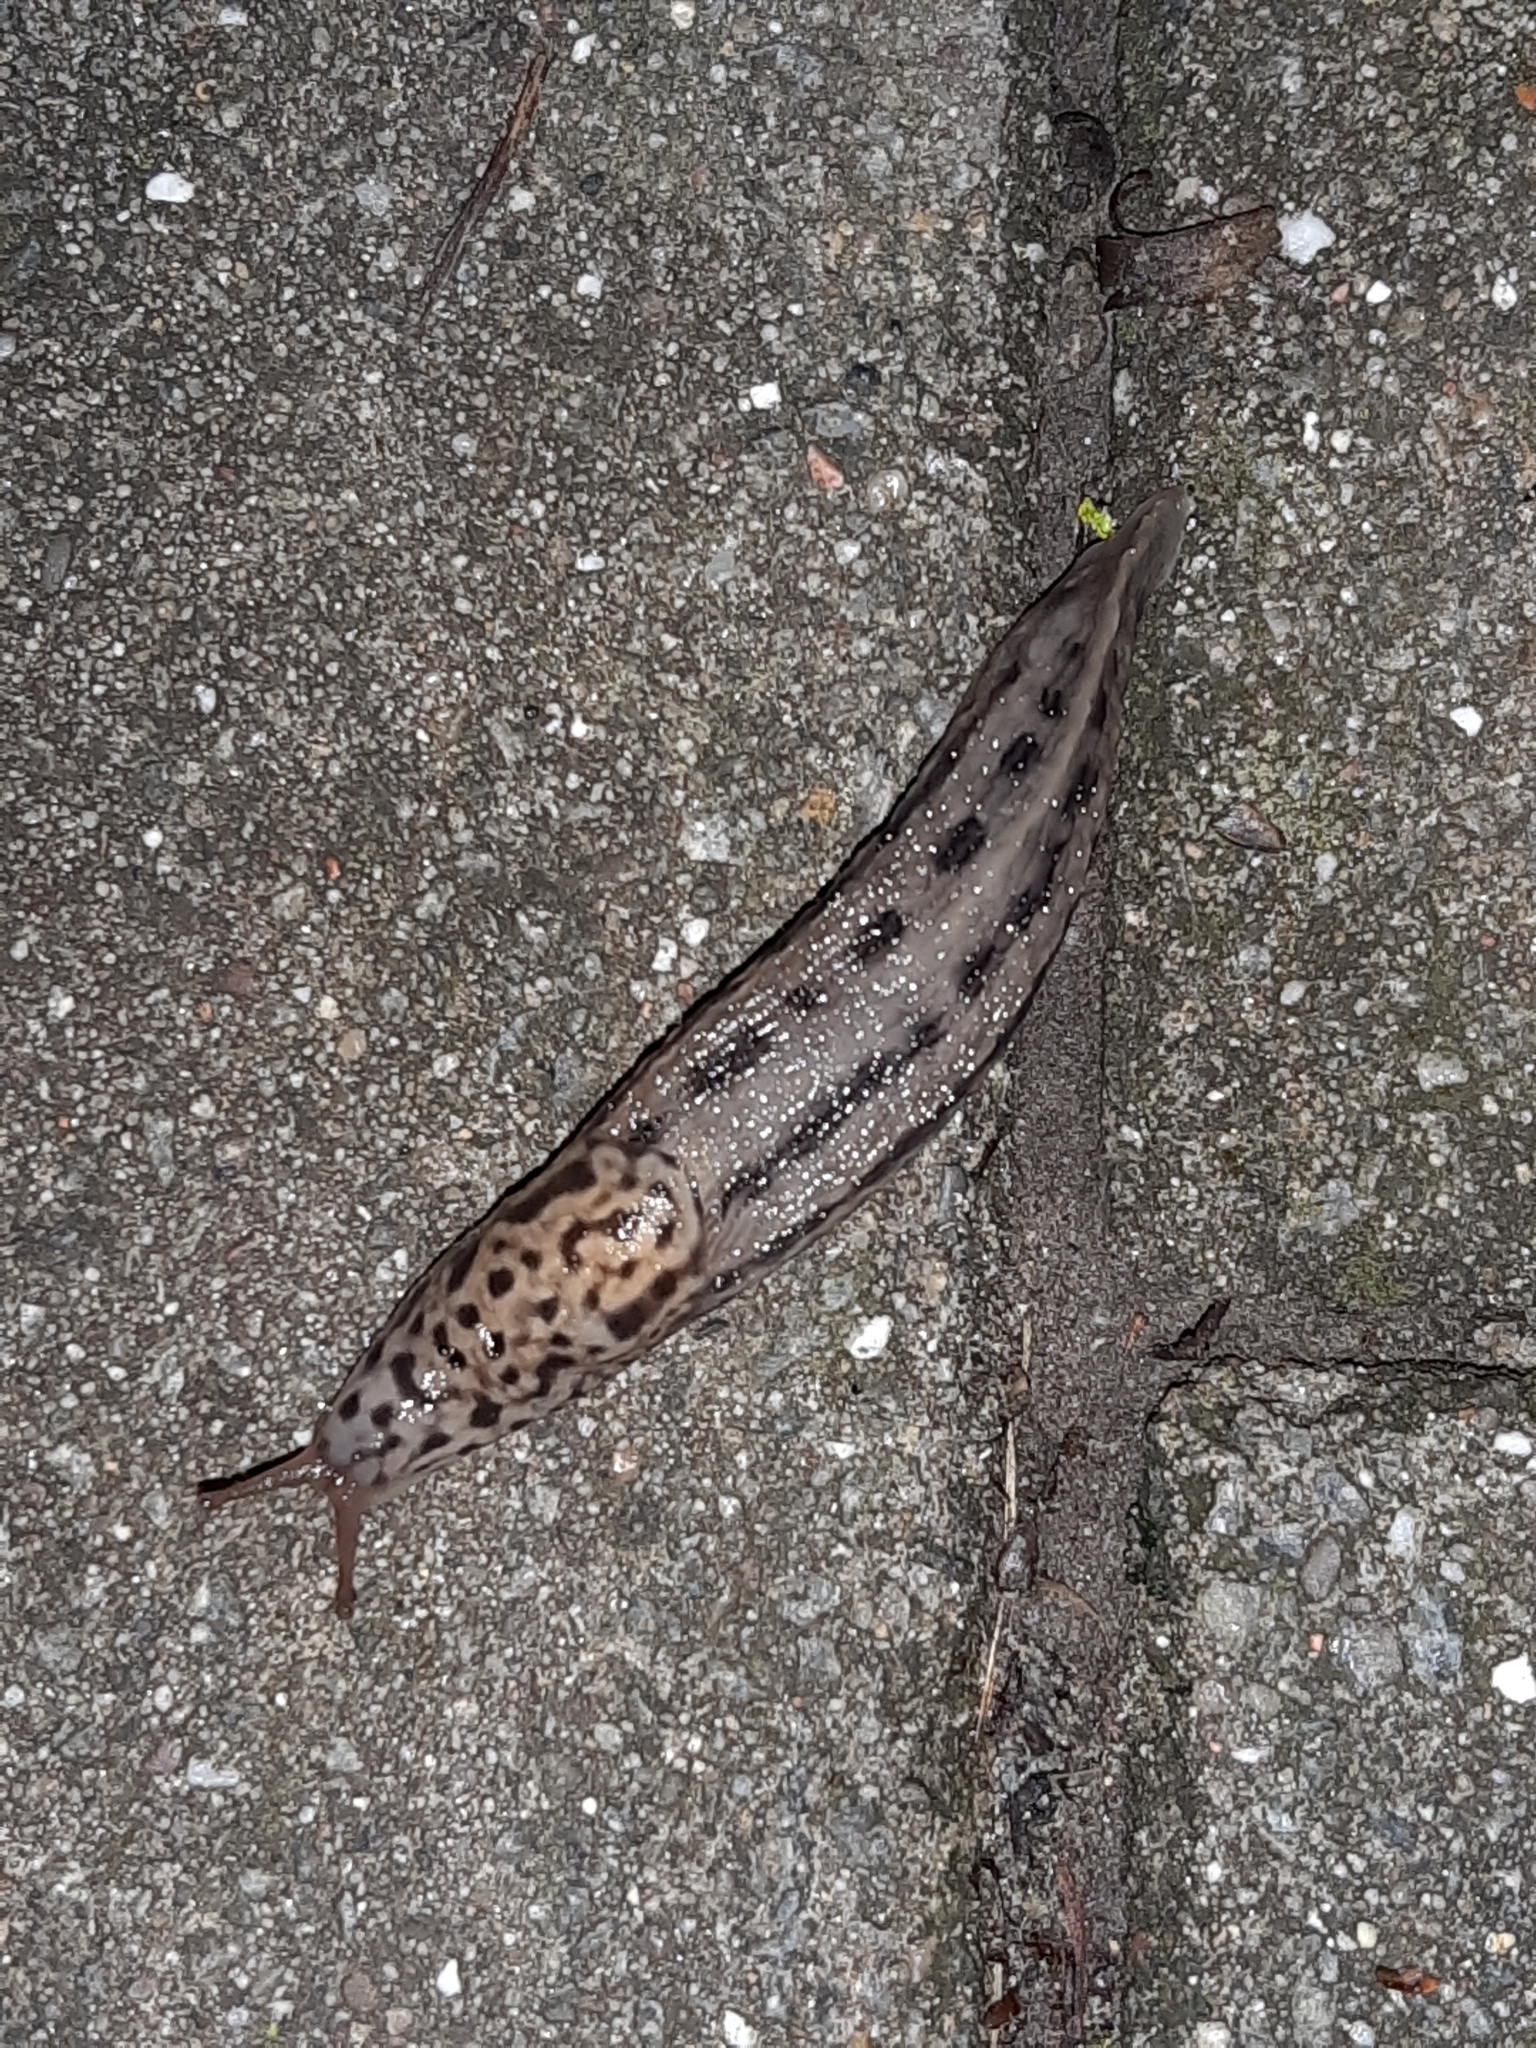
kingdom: Animalia
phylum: Mollusca
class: Gastropoda
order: Stylommatophora
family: Limacidae
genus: Limax
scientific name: Limax maximus
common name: Great grey slug
